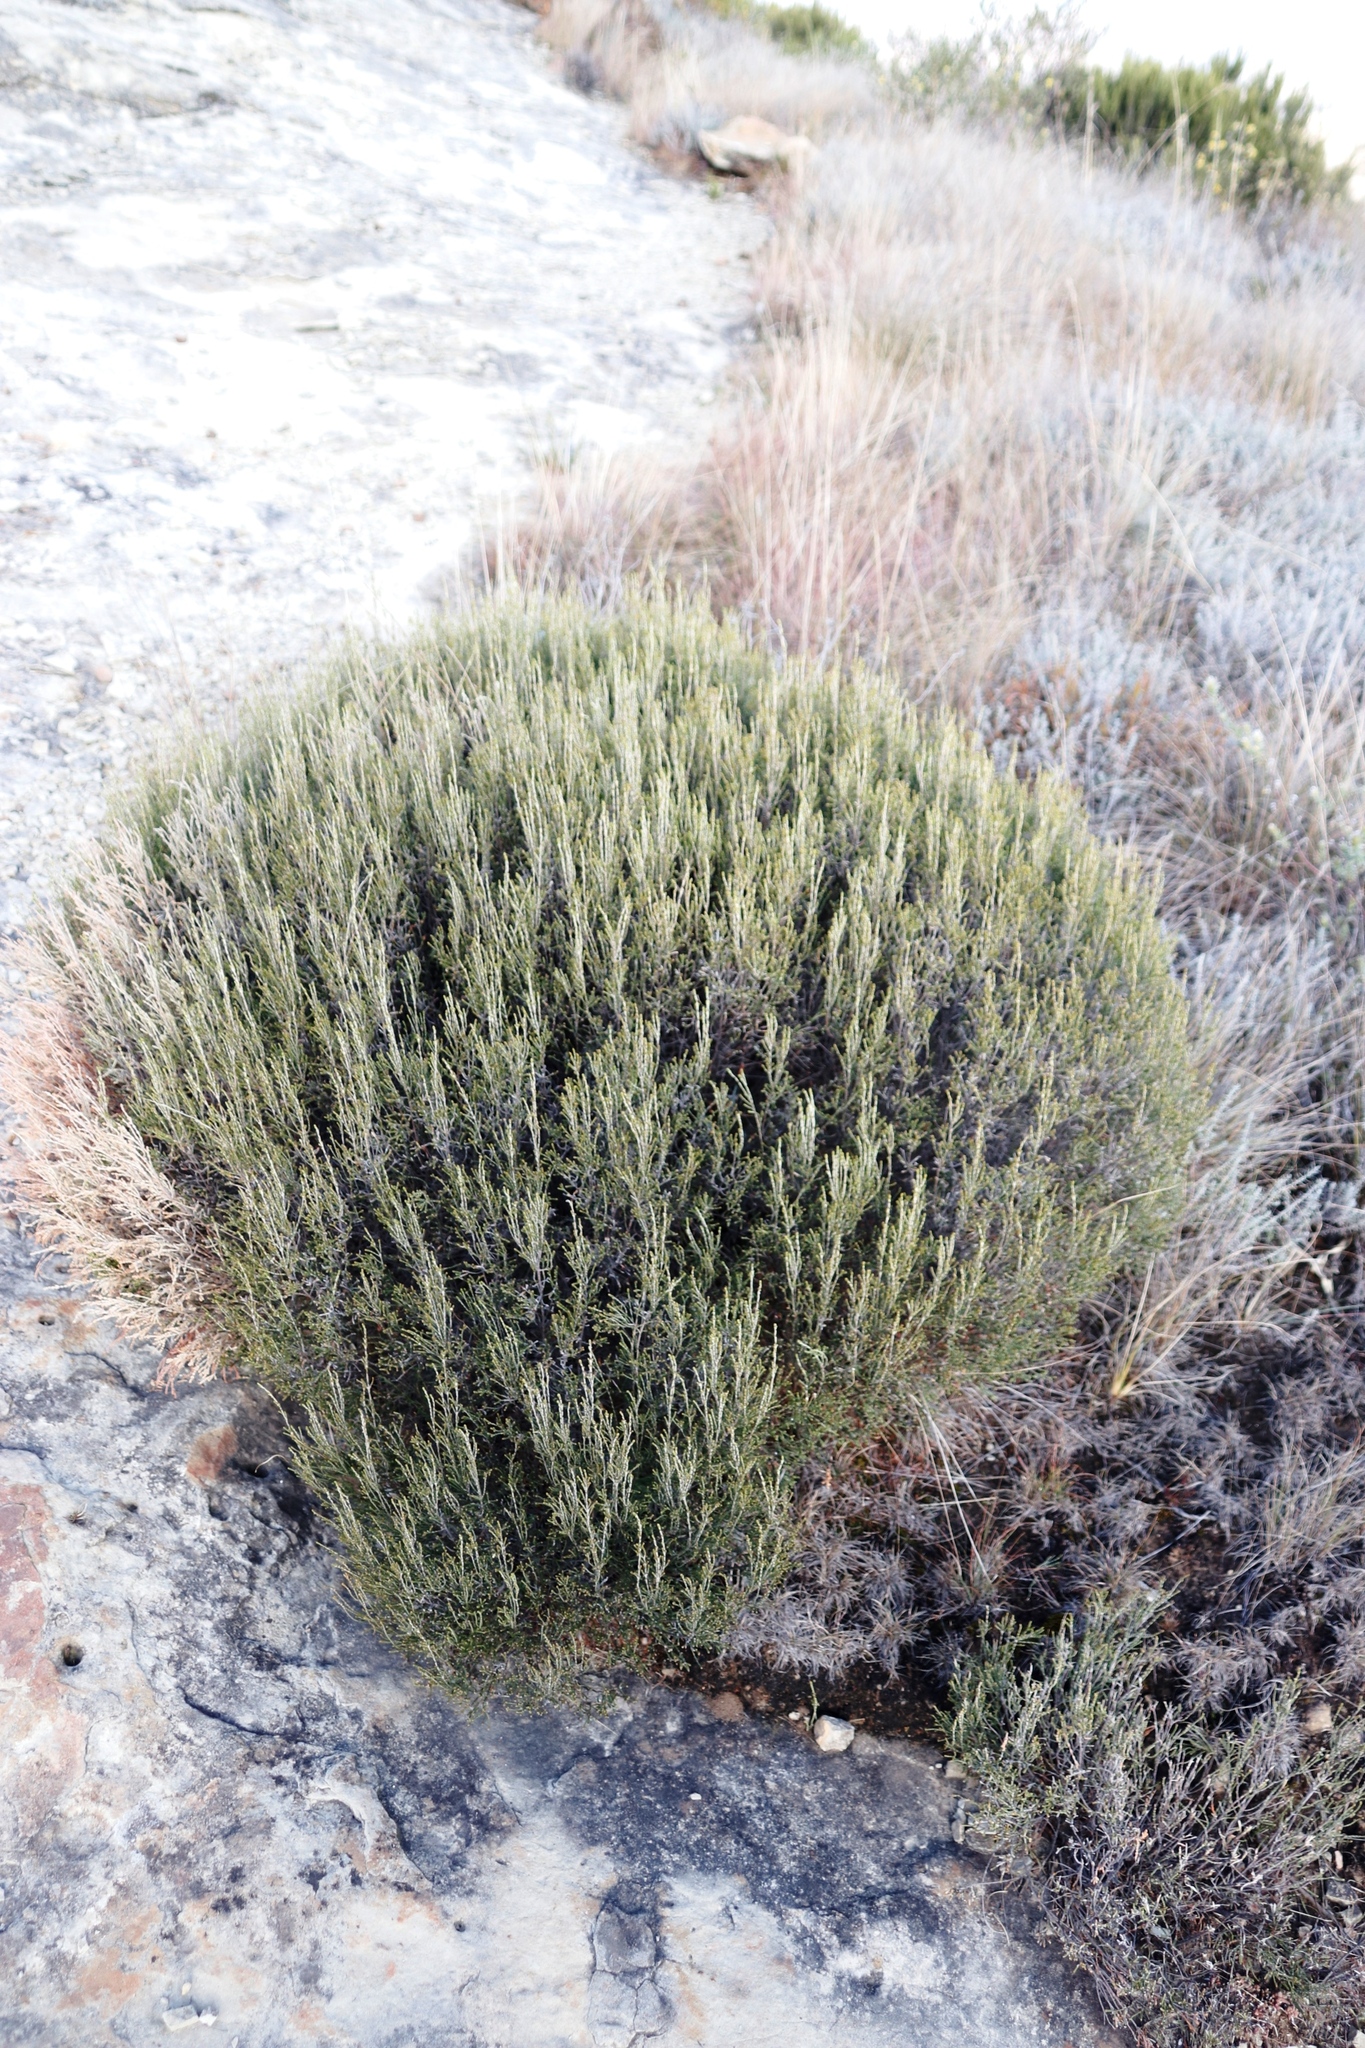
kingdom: Plantae
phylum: Tracheophyta
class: Magnoliopsida
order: Malvales
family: Thymelaeaceae
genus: Passerina
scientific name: Passerina montana
